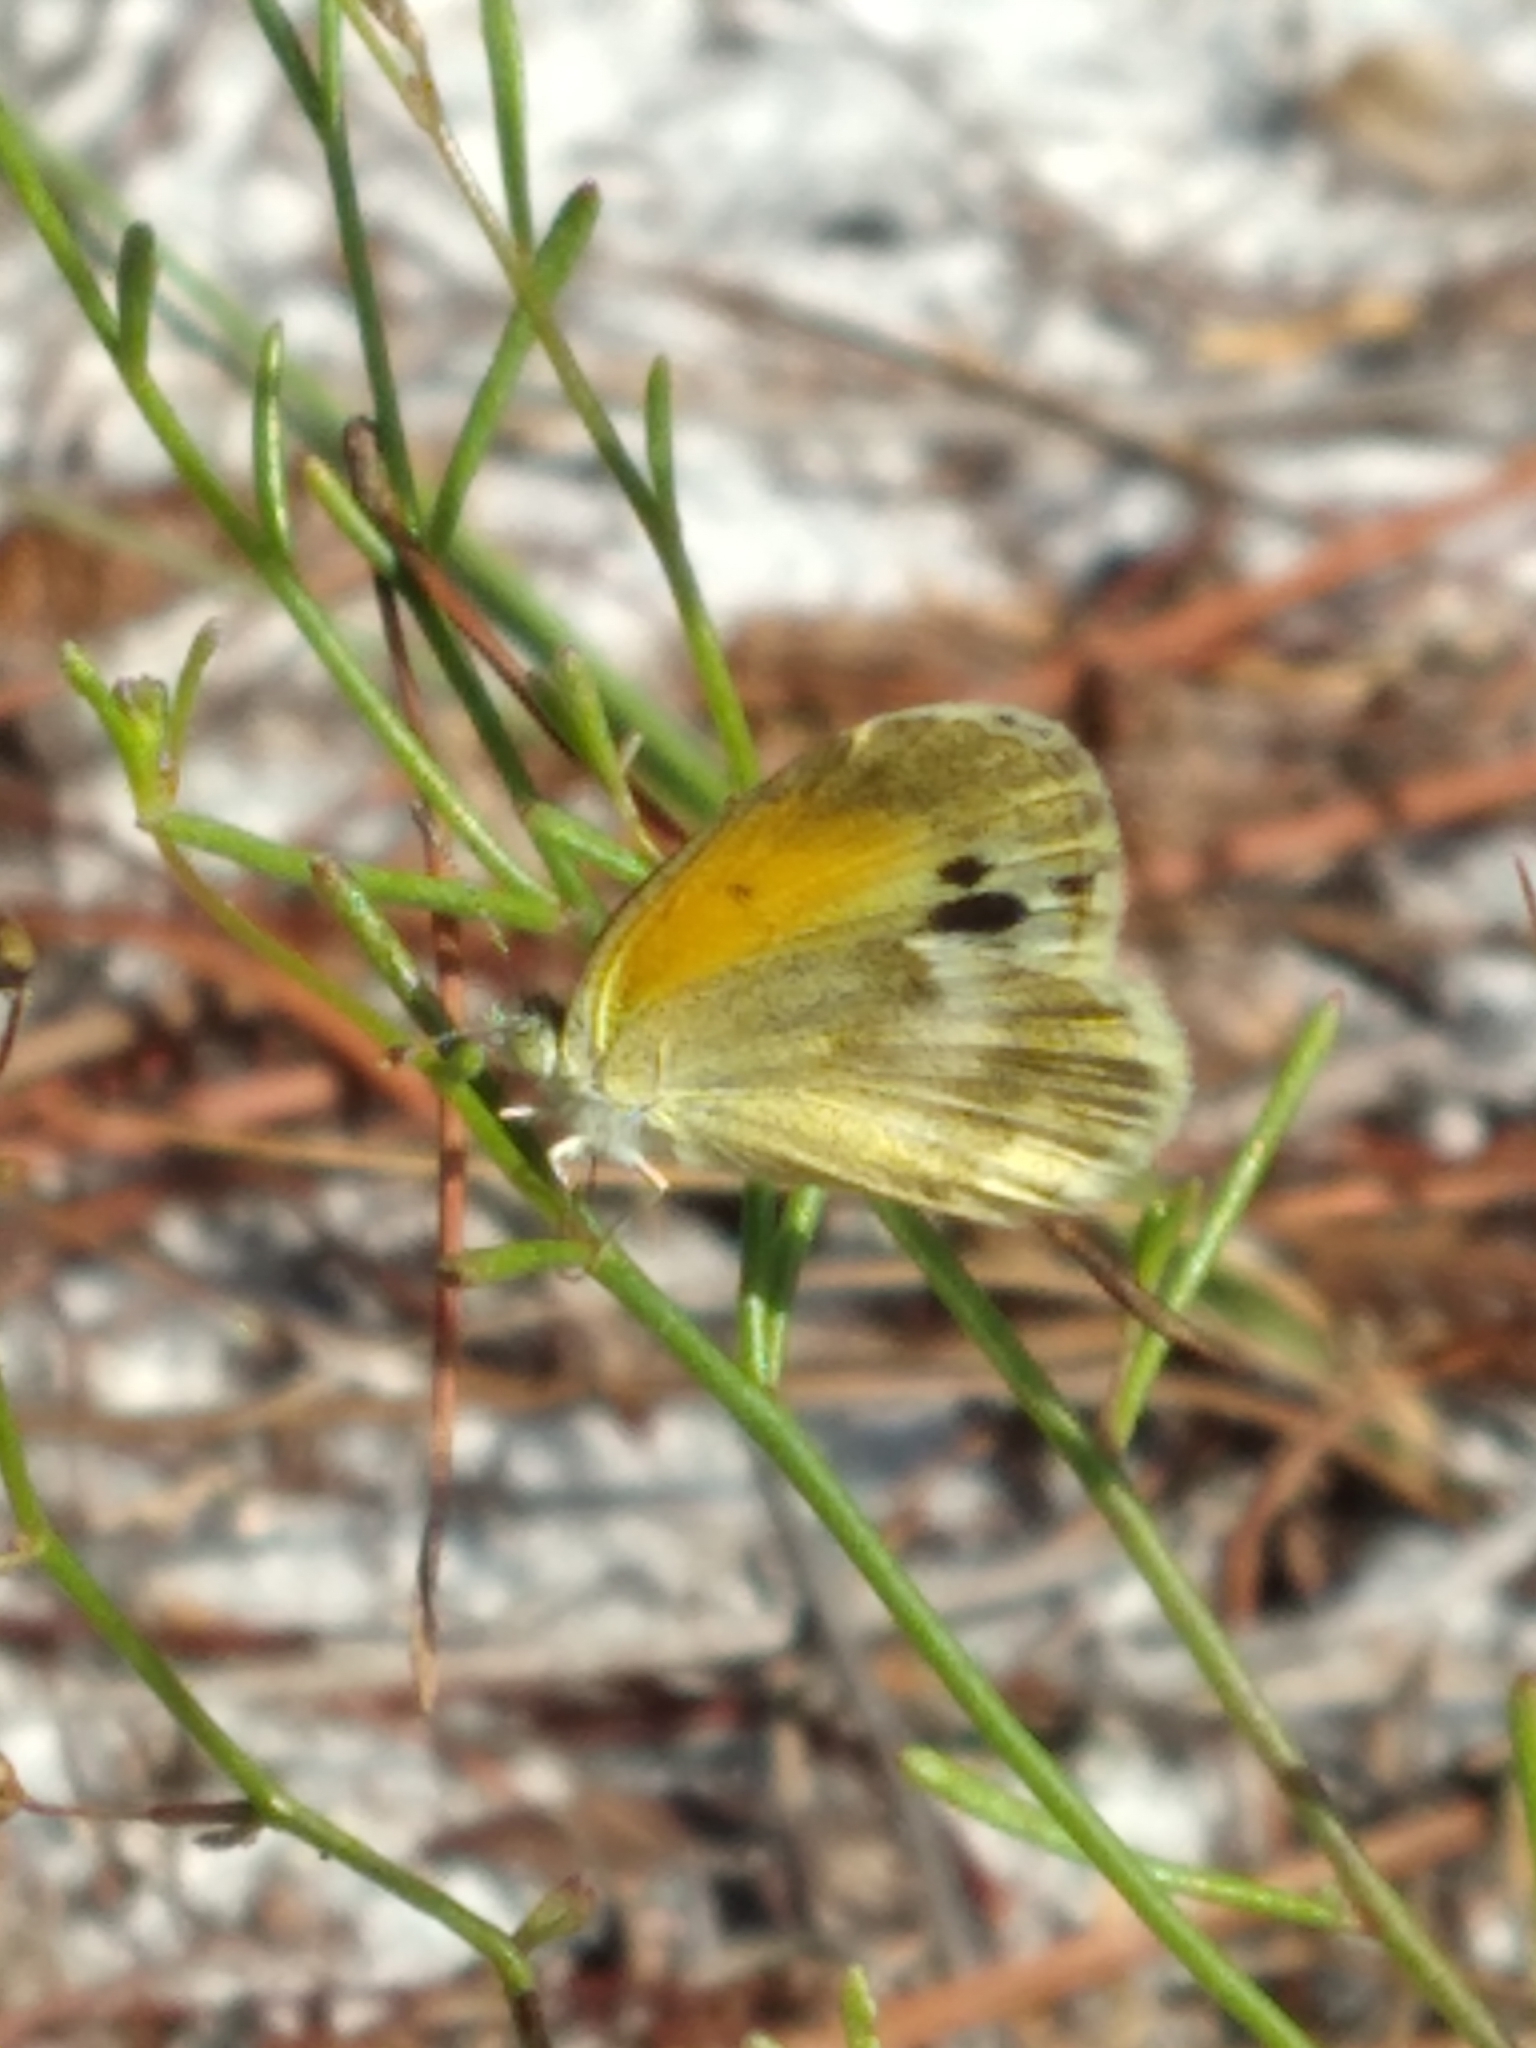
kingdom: Animalia
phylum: Arthropoda
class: Insecta
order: Lepidoptera
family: Pieridae
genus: Nathalis
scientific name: Nathalis iole
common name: Dainty sulphur
